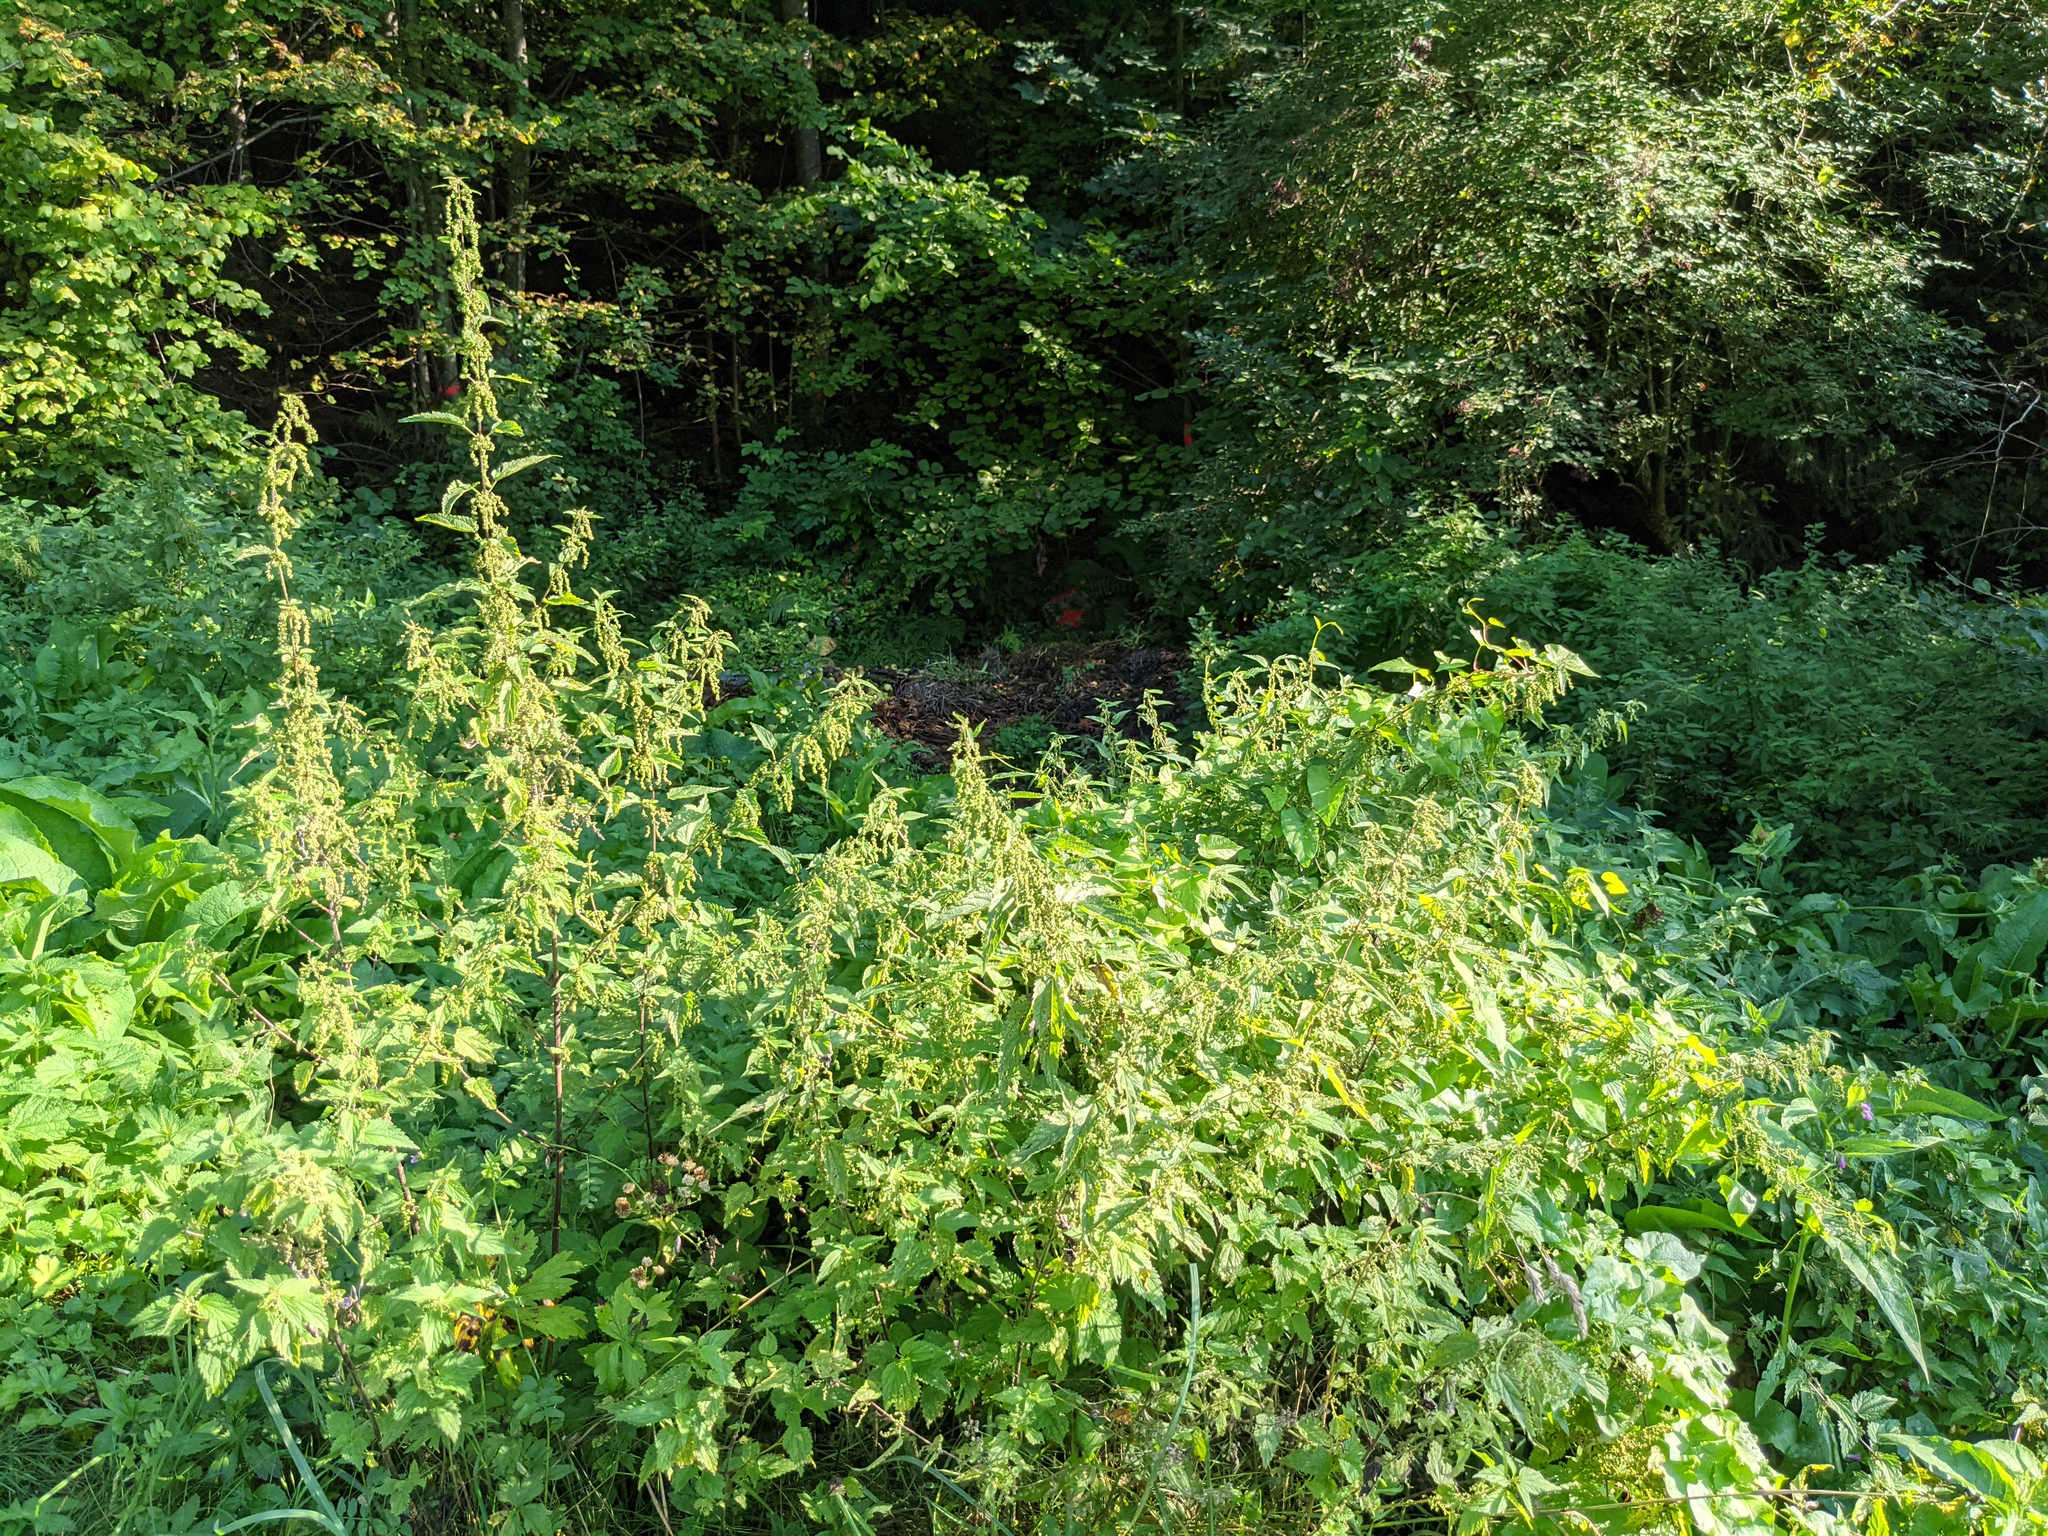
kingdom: Plantae
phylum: Tracheophyta
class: Magnoliopsida
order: Rosales
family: Urticaceae
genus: Urtica
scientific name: Urtica dioica
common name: Common nettle
